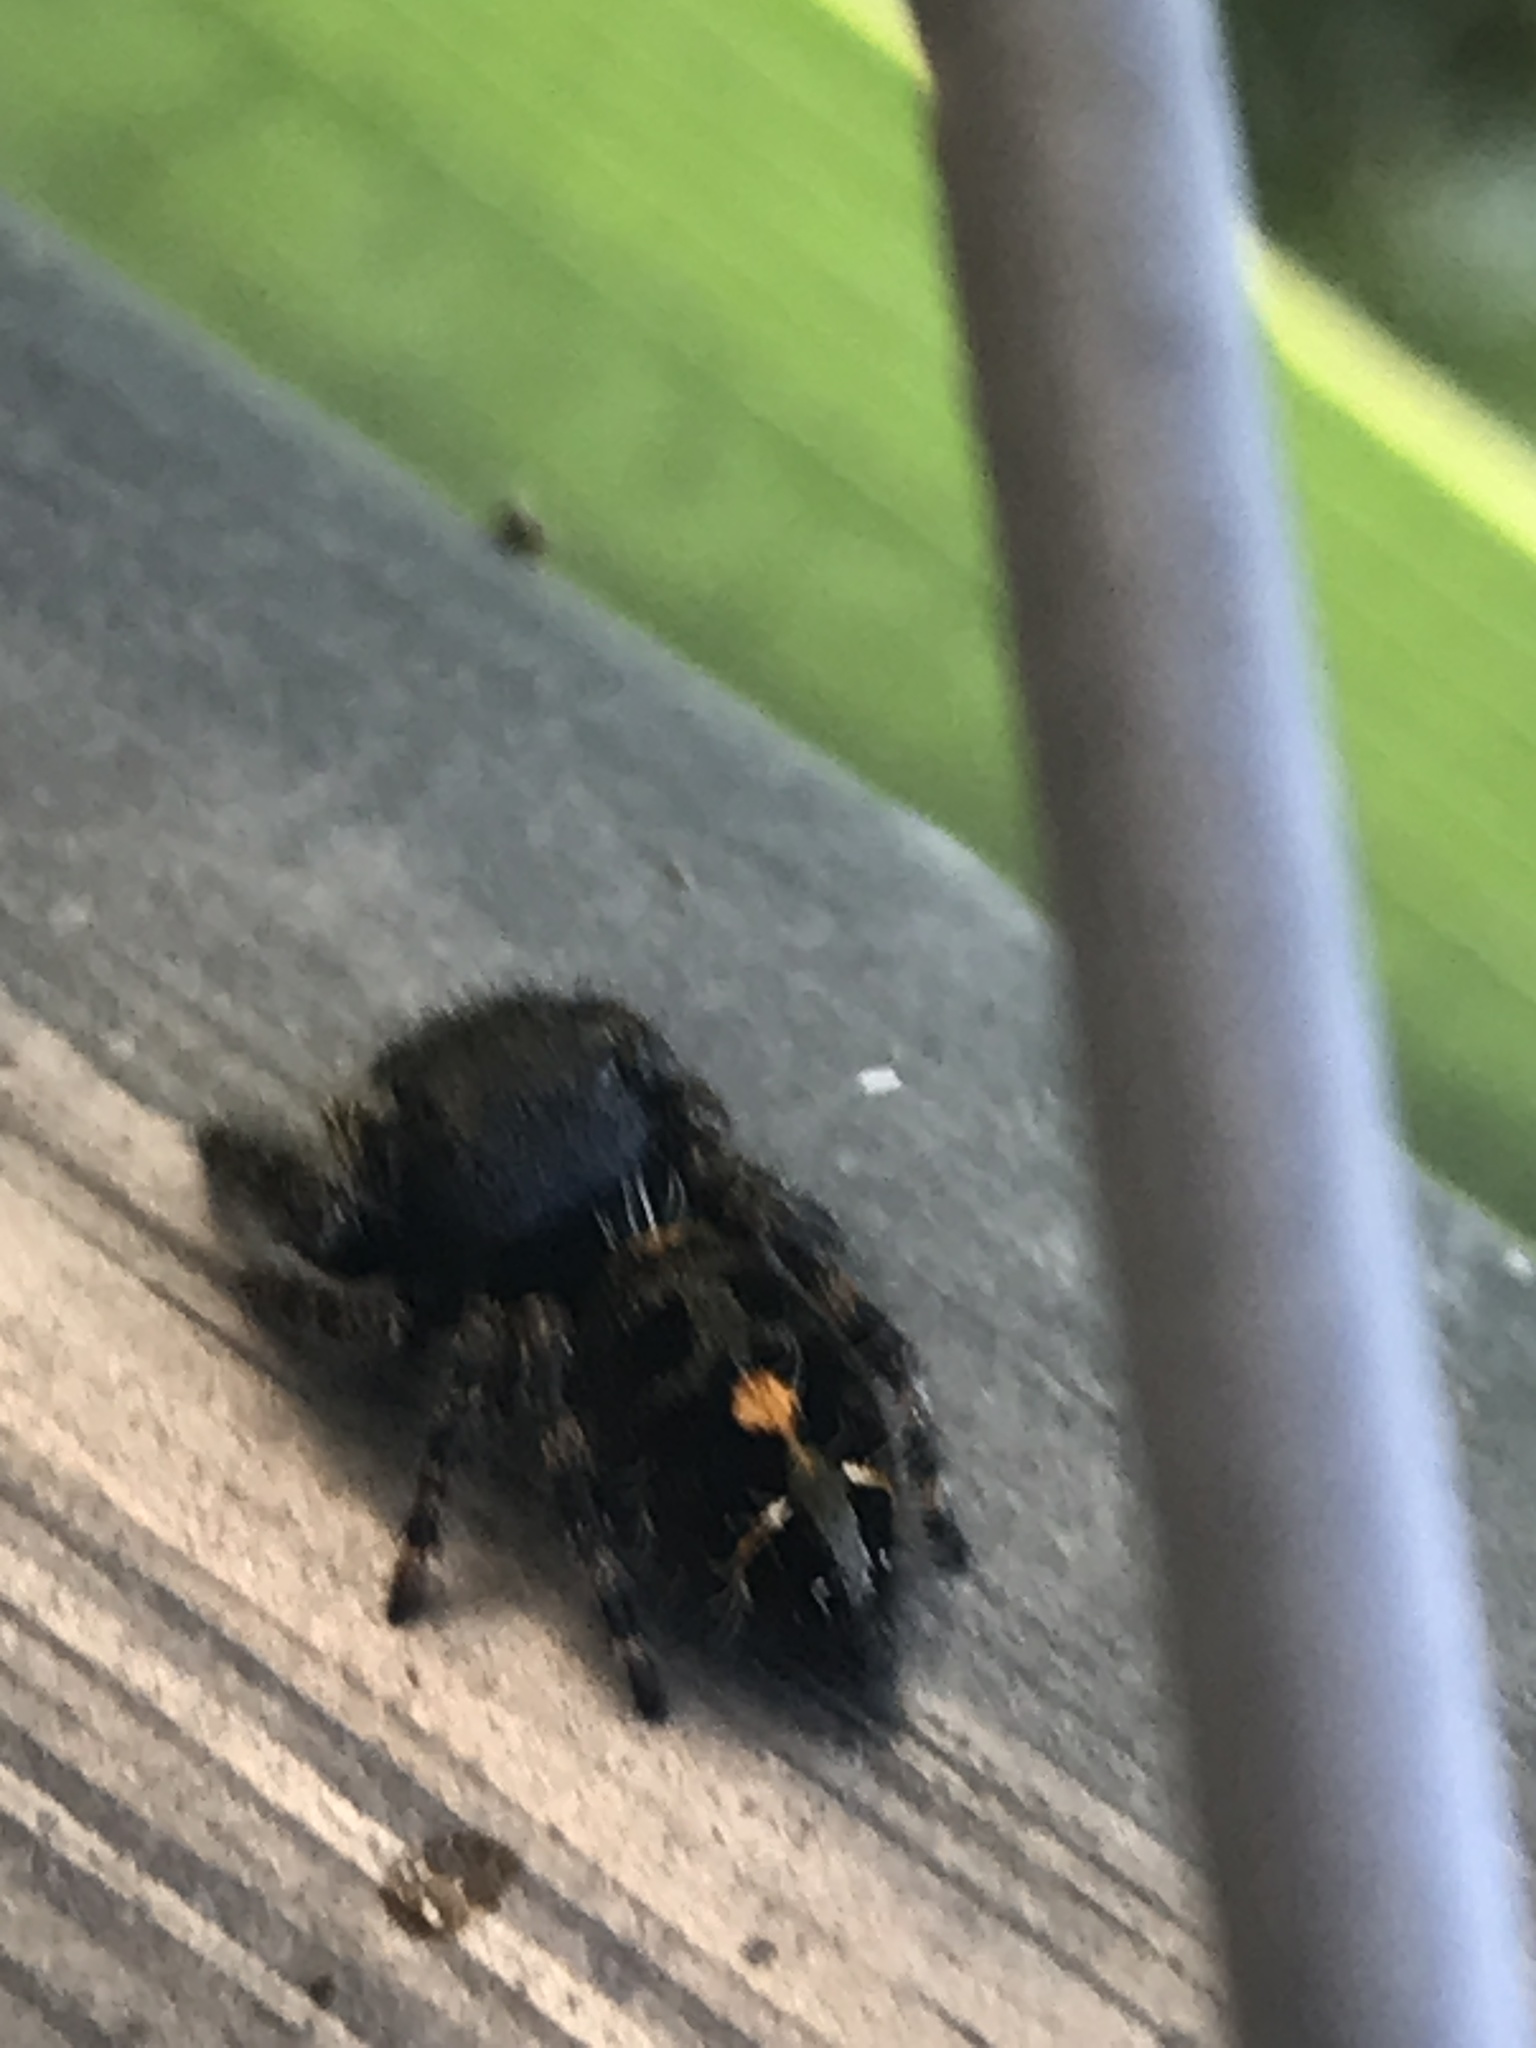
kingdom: Animalia
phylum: Arthropoda
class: Arachnida
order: Araneae
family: Salticidae
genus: Phidippus
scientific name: Phidippus audax
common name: Bold jumper
